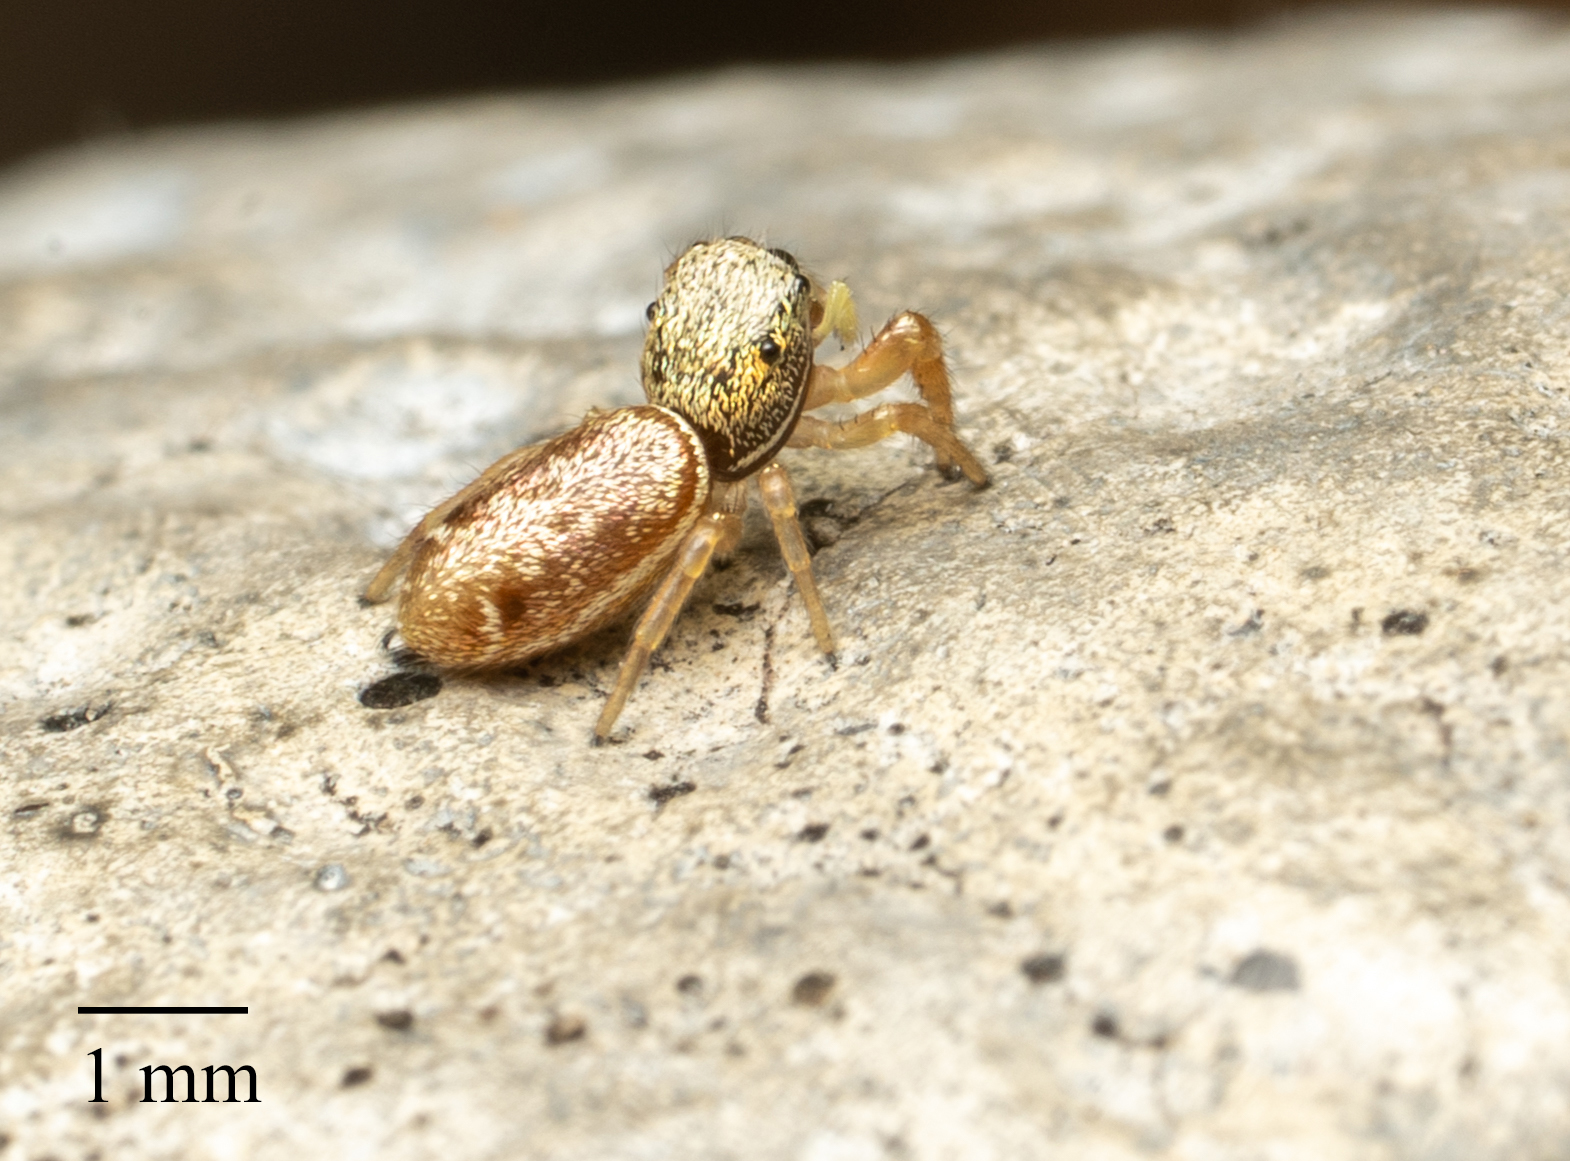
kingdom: Animalia
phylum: Arthropoda
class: Arachnida
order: Araneae
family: Salticidae
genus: Sassacus
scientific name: Sassacus vitis
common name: Jumping spiders
